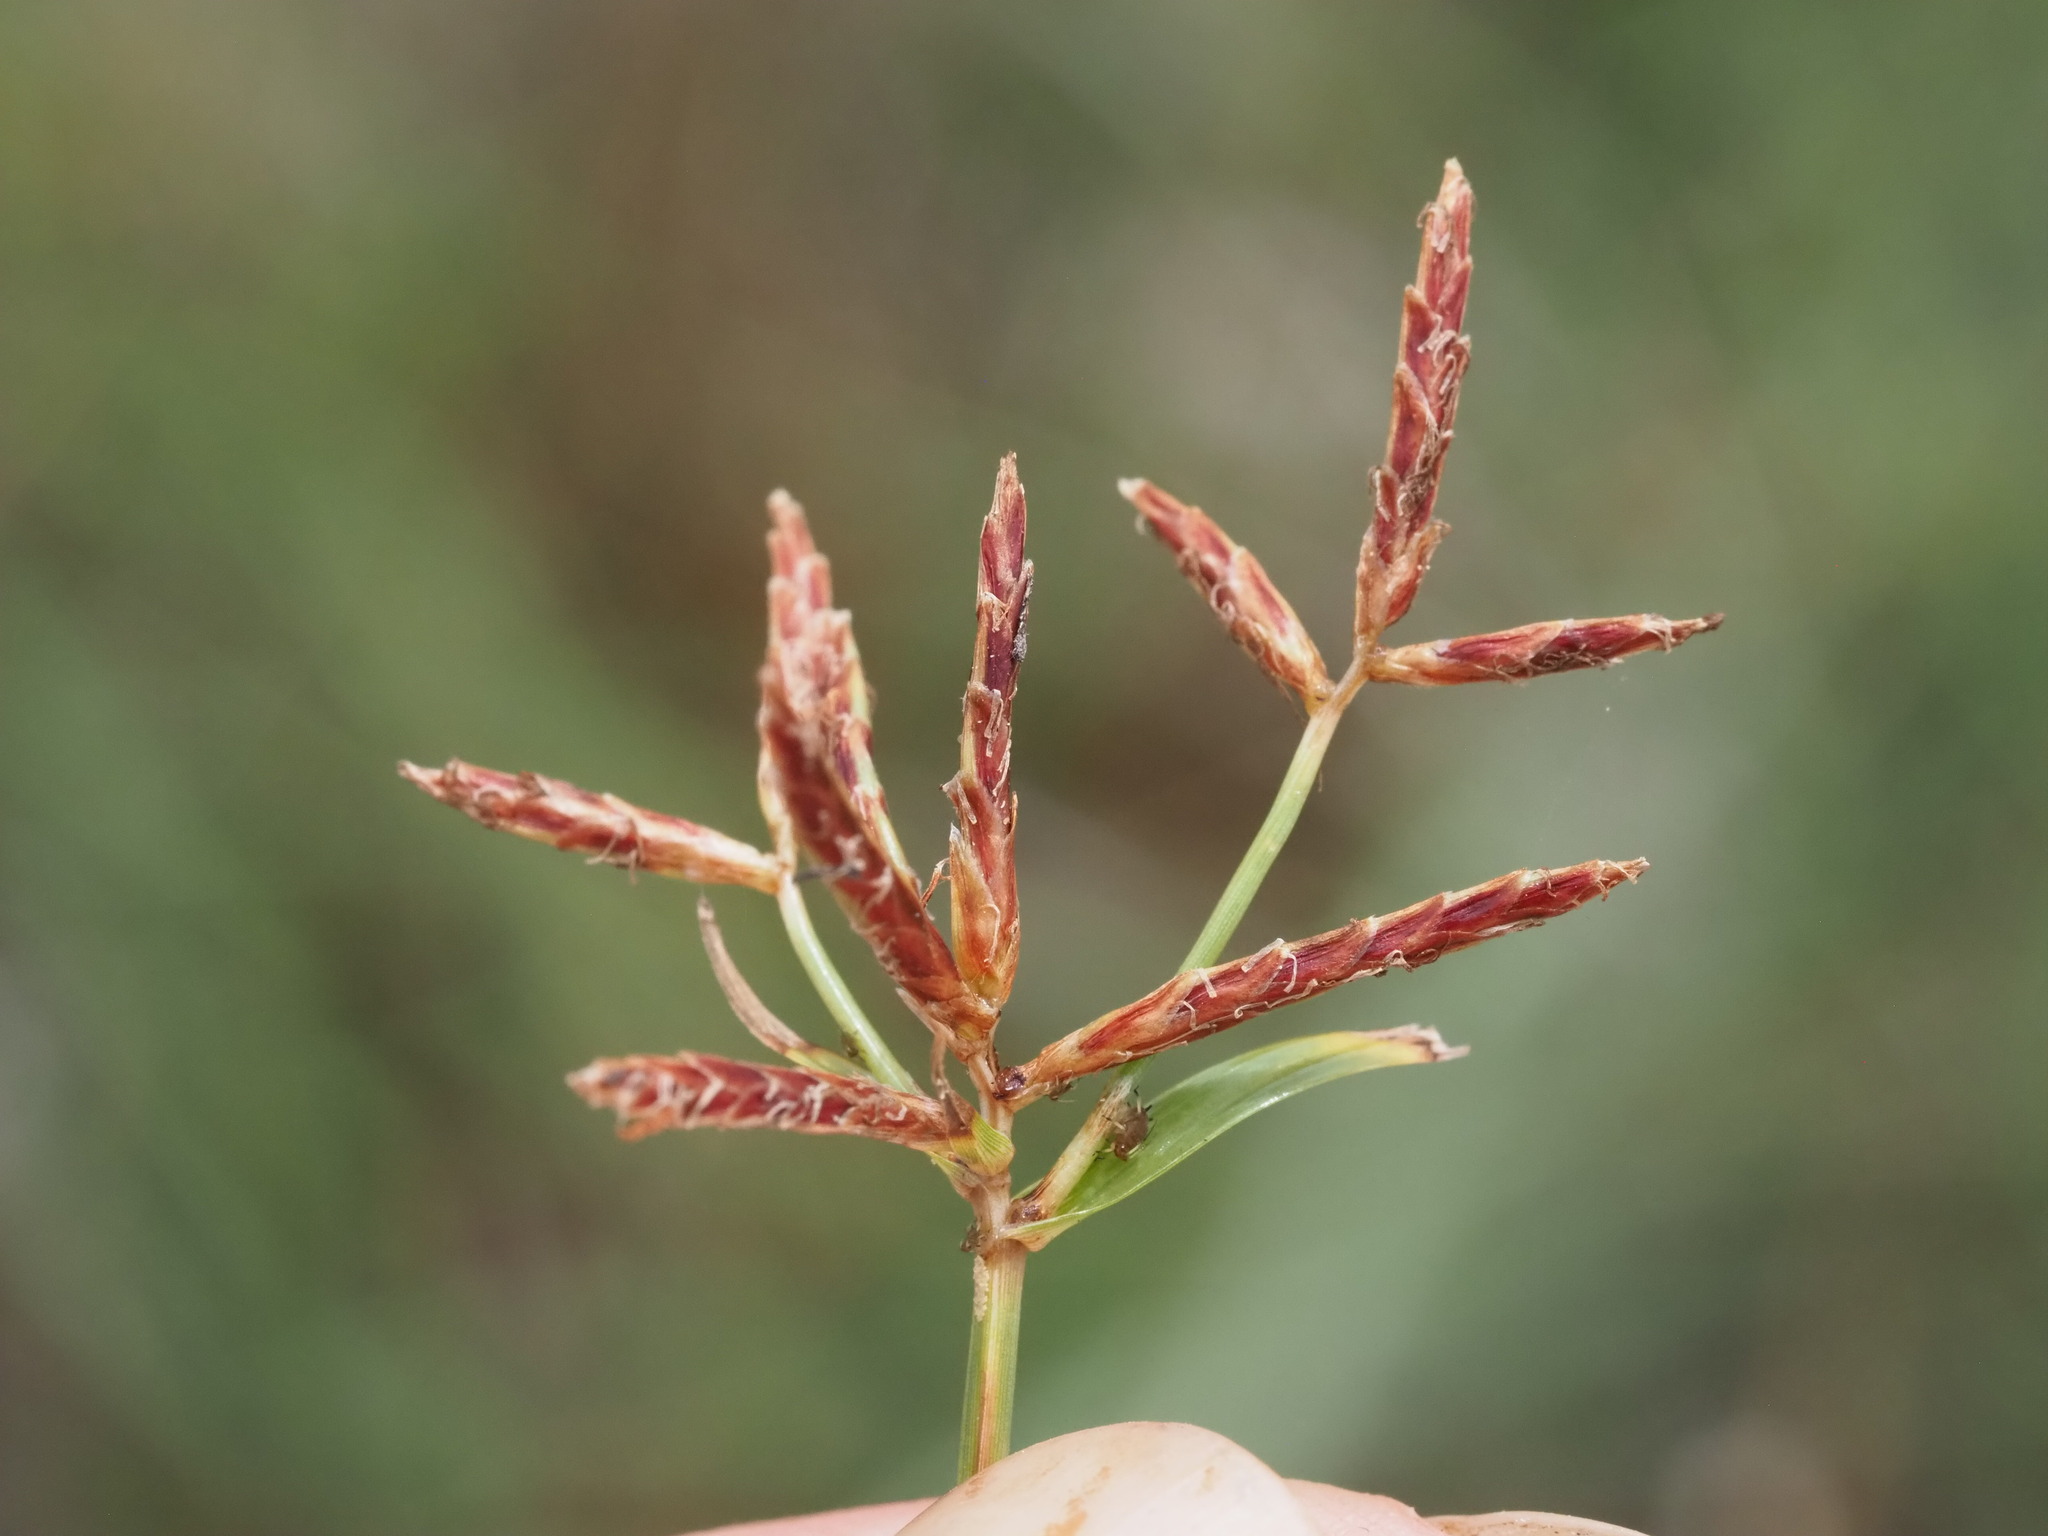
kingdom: Plantae
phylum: Tracheophyta
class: Liliopsida
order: Poales
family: Cyperaceae
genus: Cyperus
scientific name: Cyperus rotundus
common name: Nutgrass
